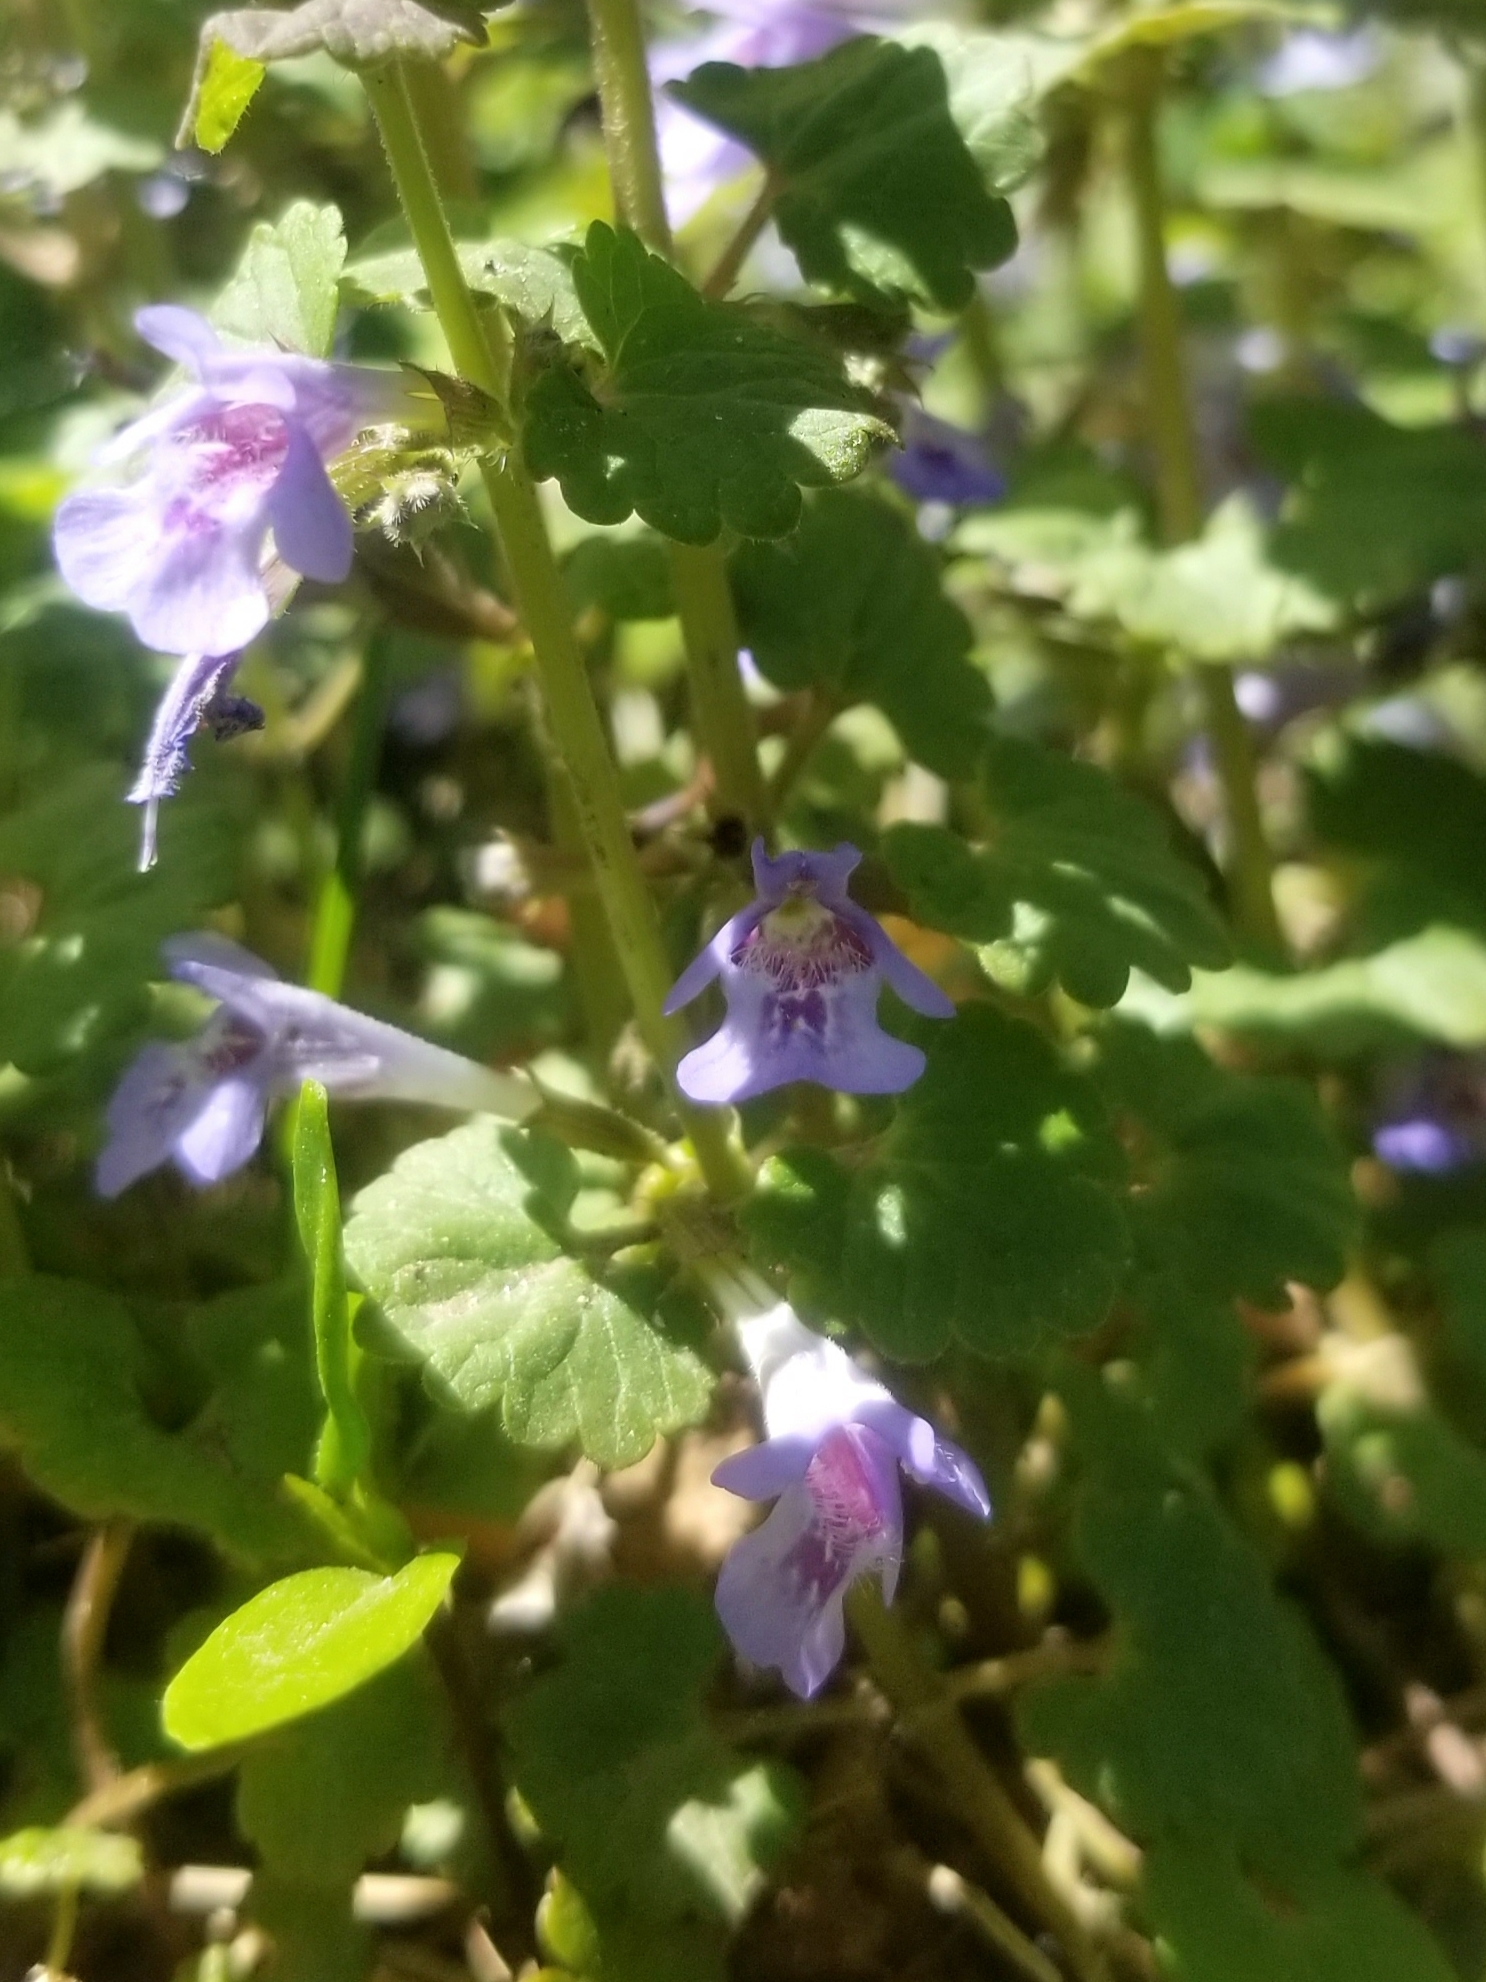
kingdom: Plantae
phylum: Tracheophyta
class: Magnoliopsida
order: Lamiales
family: Lamiaceae
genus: Glechoma
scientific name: Glechoma hederacea
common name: Ground ivy
